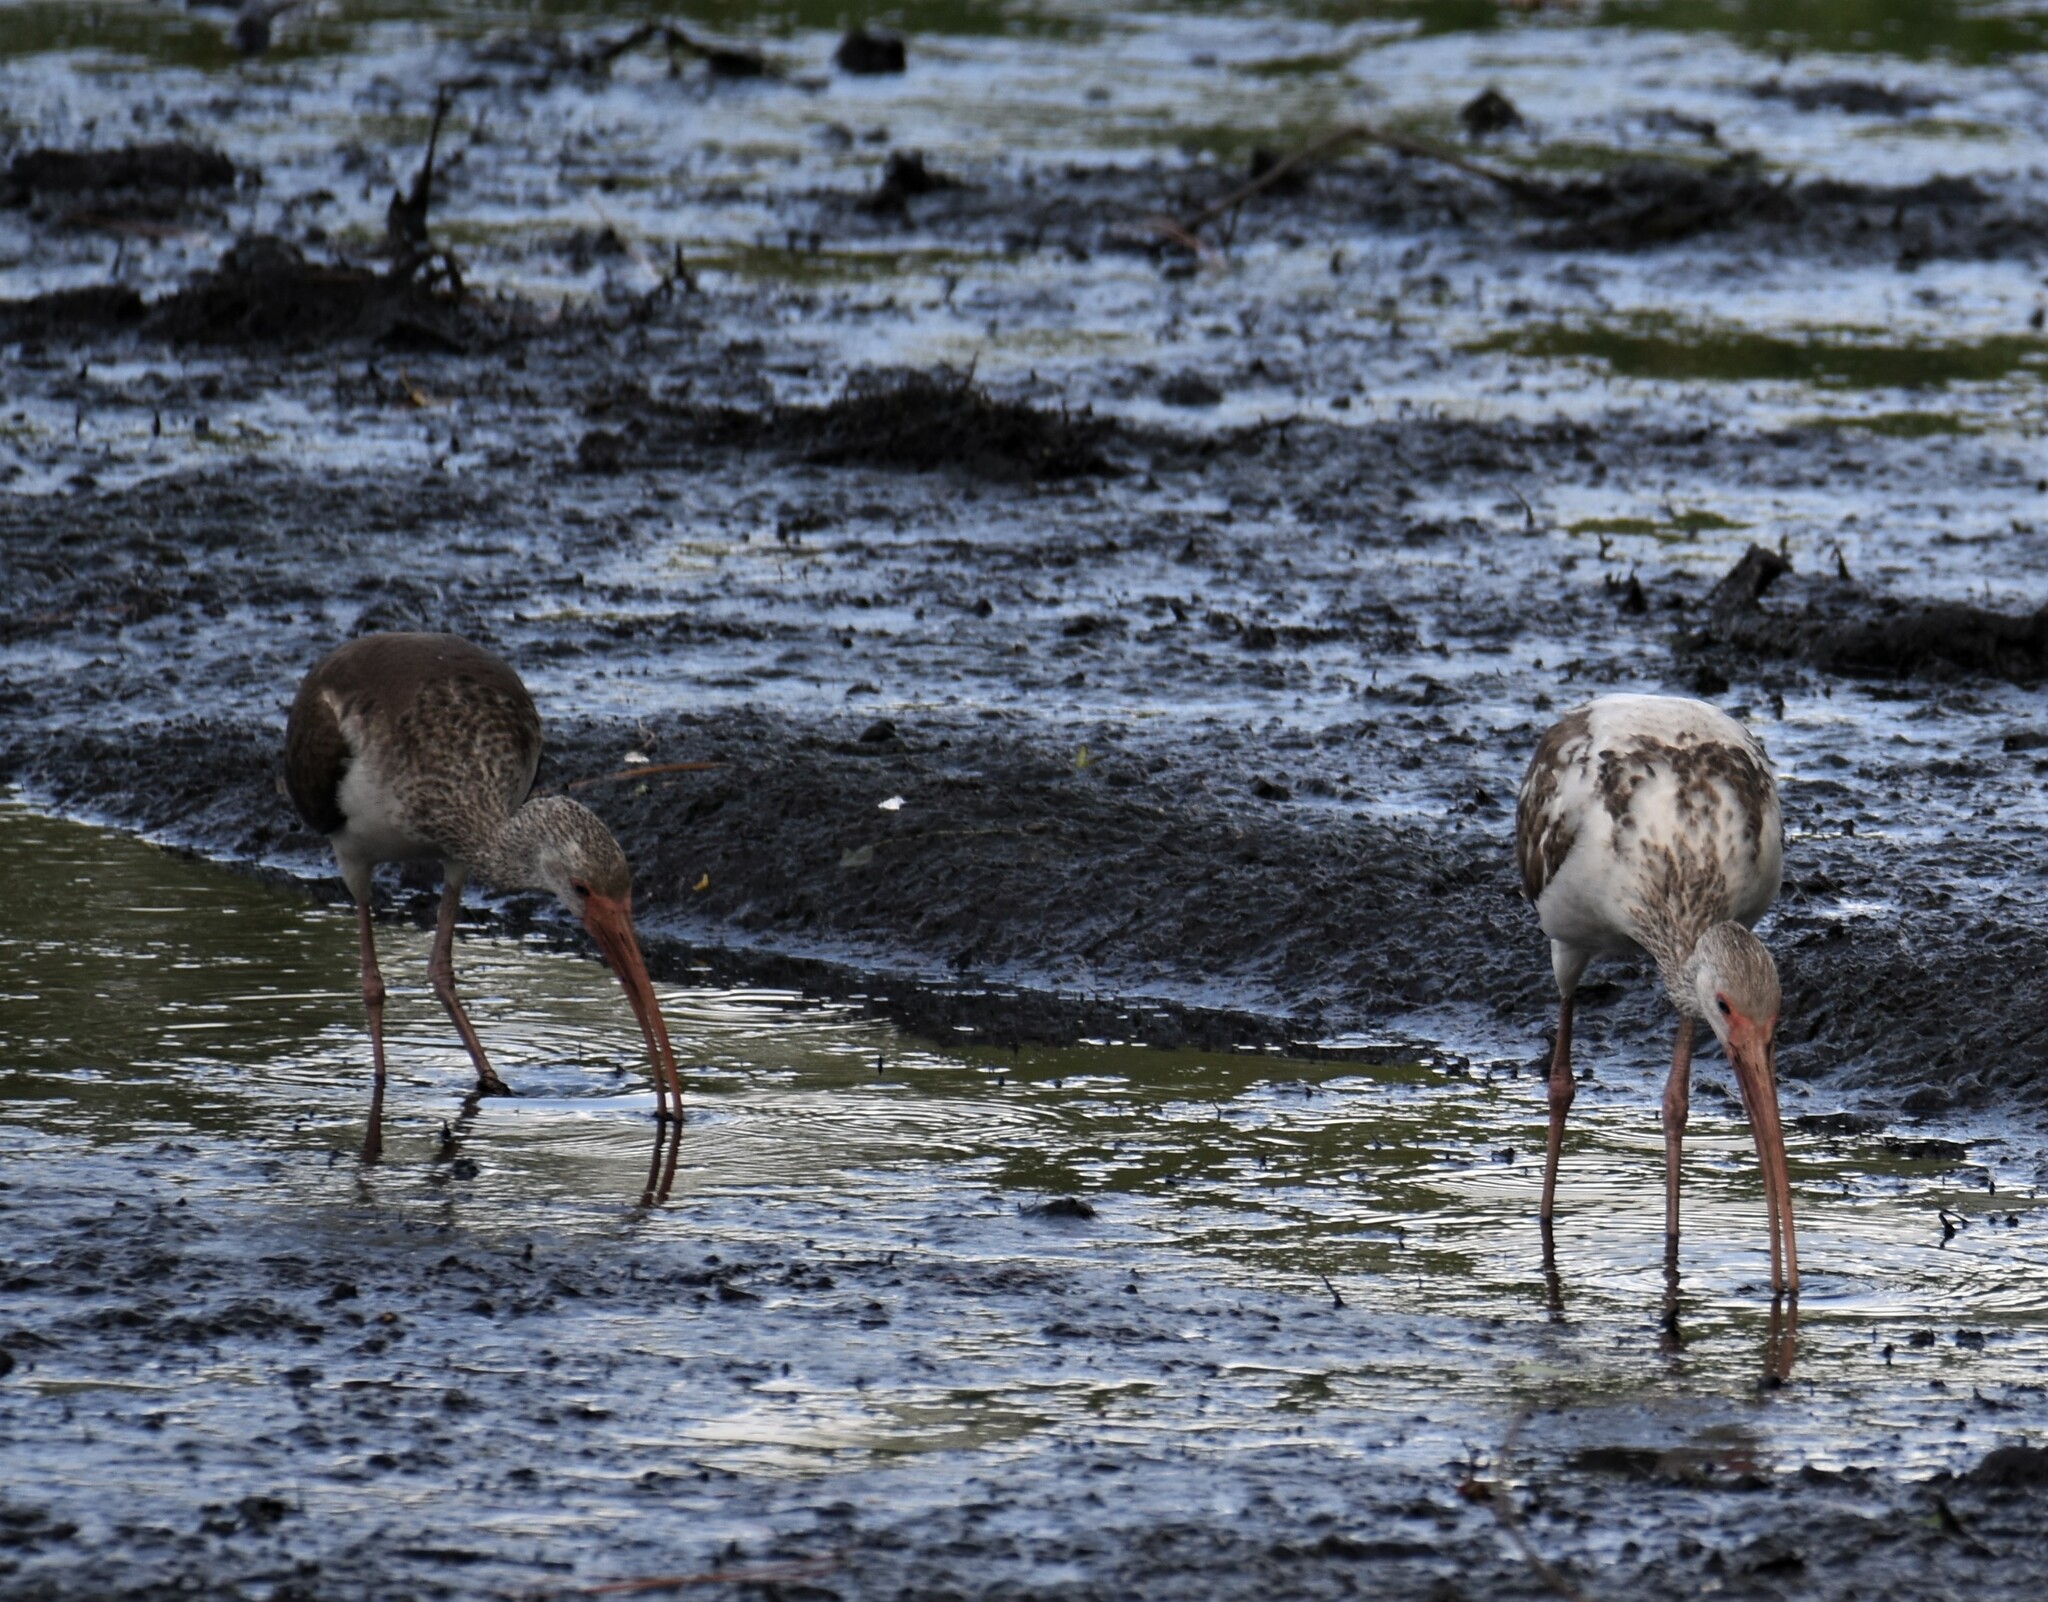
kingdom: Animalia
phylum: Chordata
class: Aves
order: Pelecaniformes
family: Threskiornithidae
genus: Eudocimus
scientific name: Eudocimus albus
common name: White ibis
